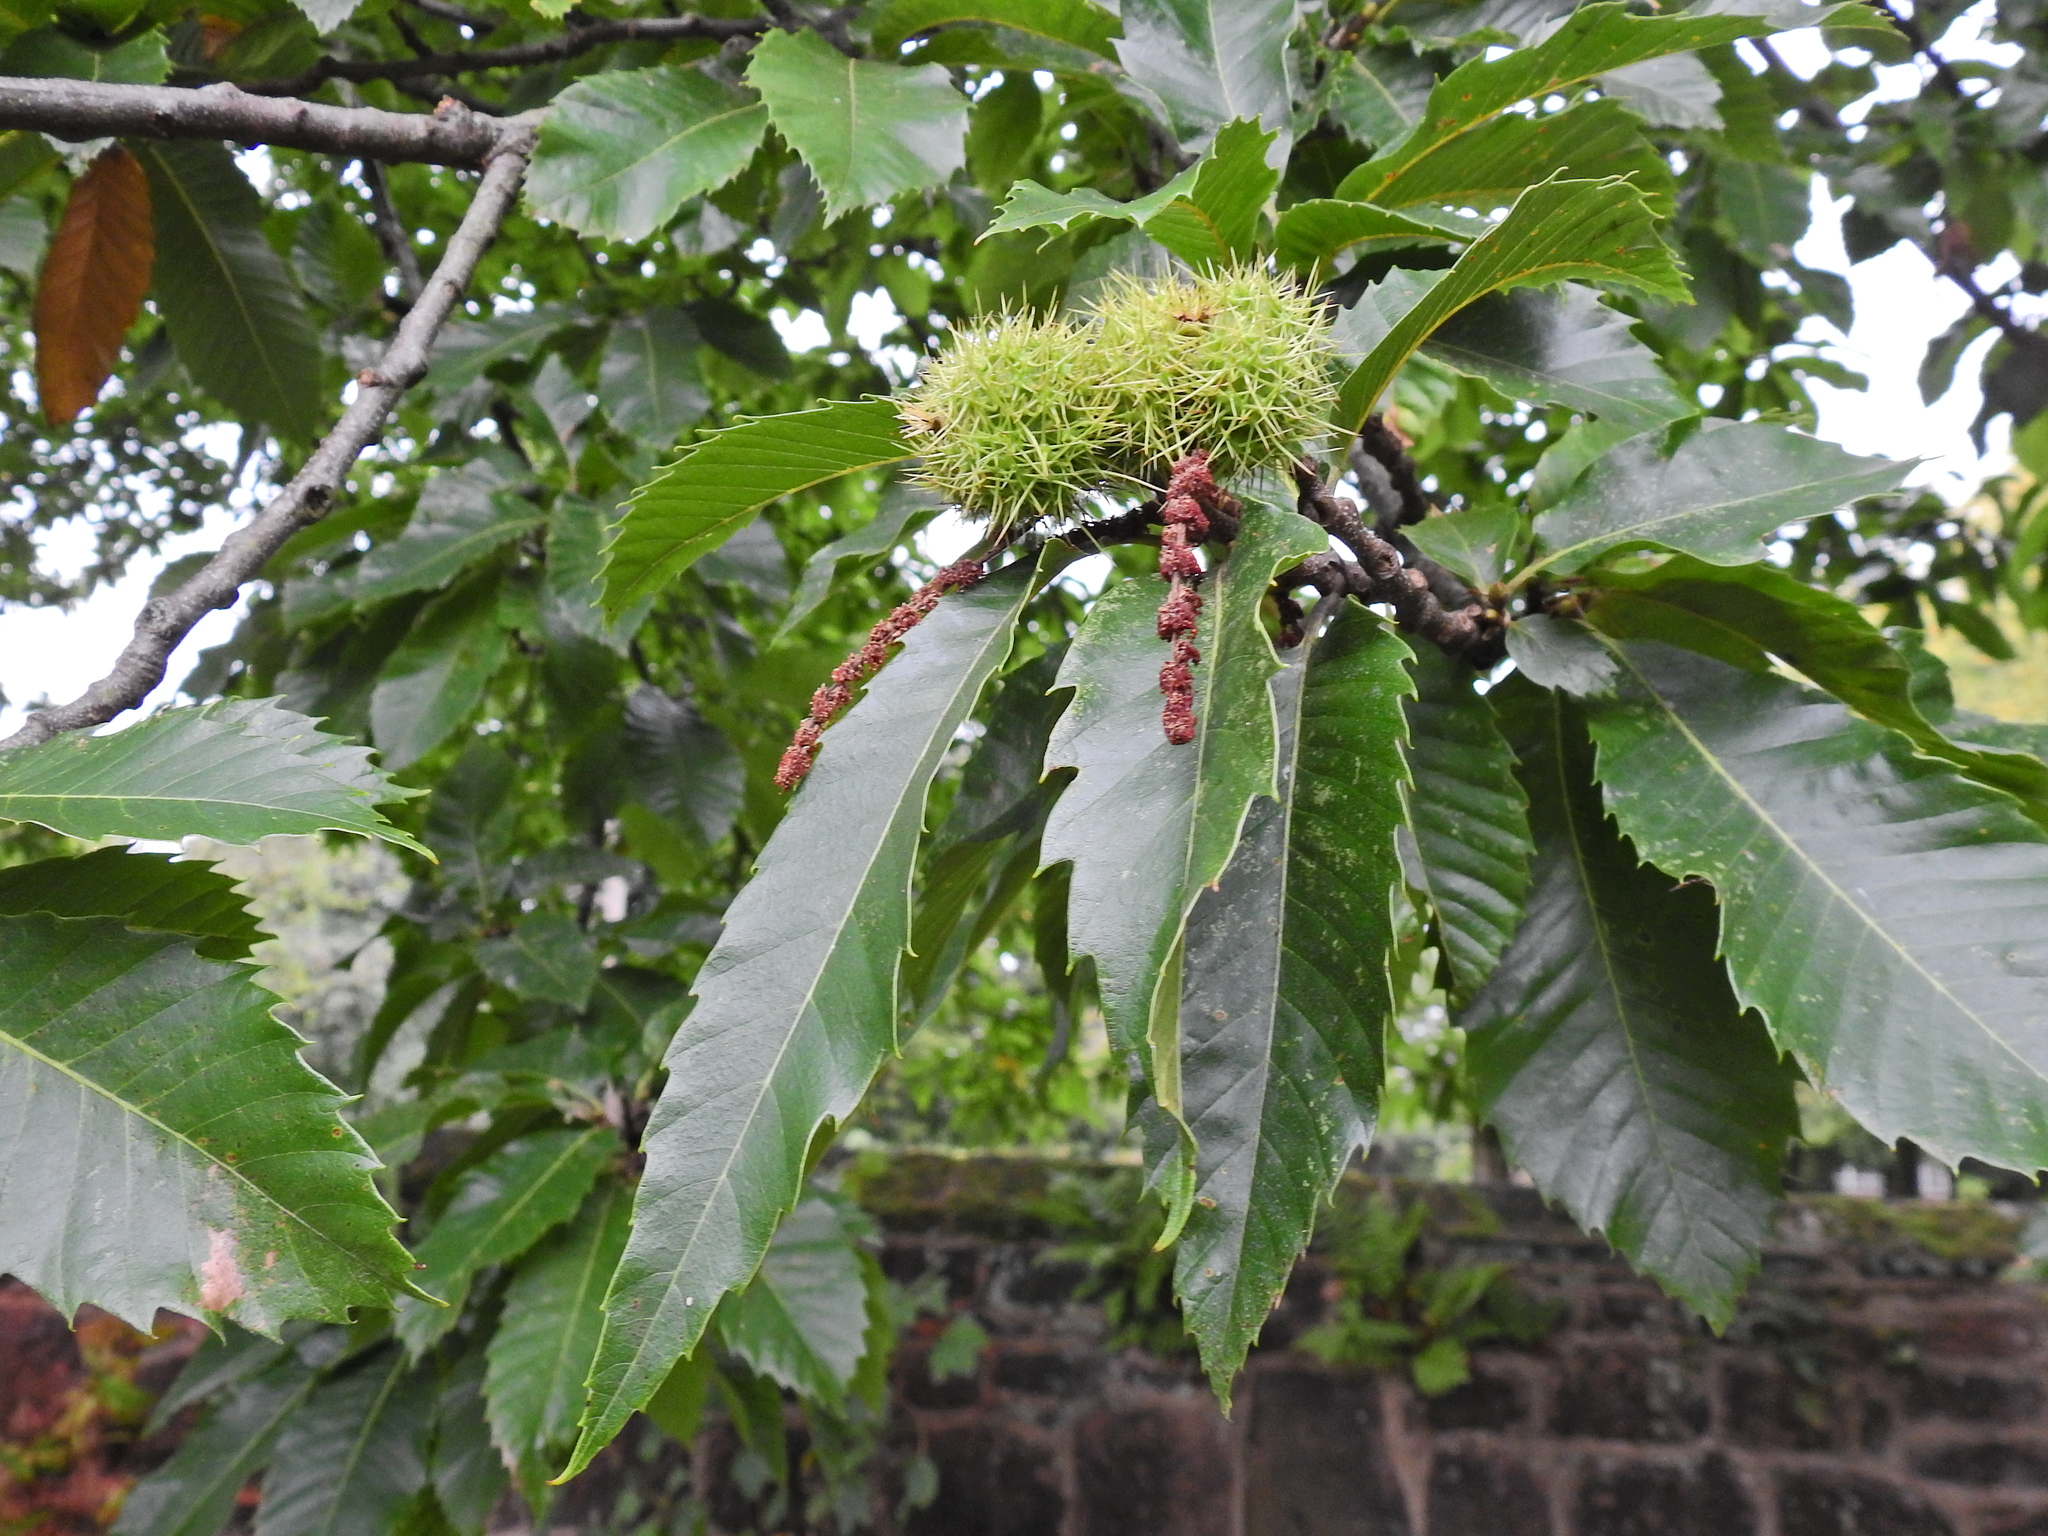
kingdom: Plantae
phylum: Tracheophyta
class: Magnoliopsida
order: Fagales
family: Fagaceae
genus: Castanea
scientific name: Castanea sativa
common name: Sweet chestnut
